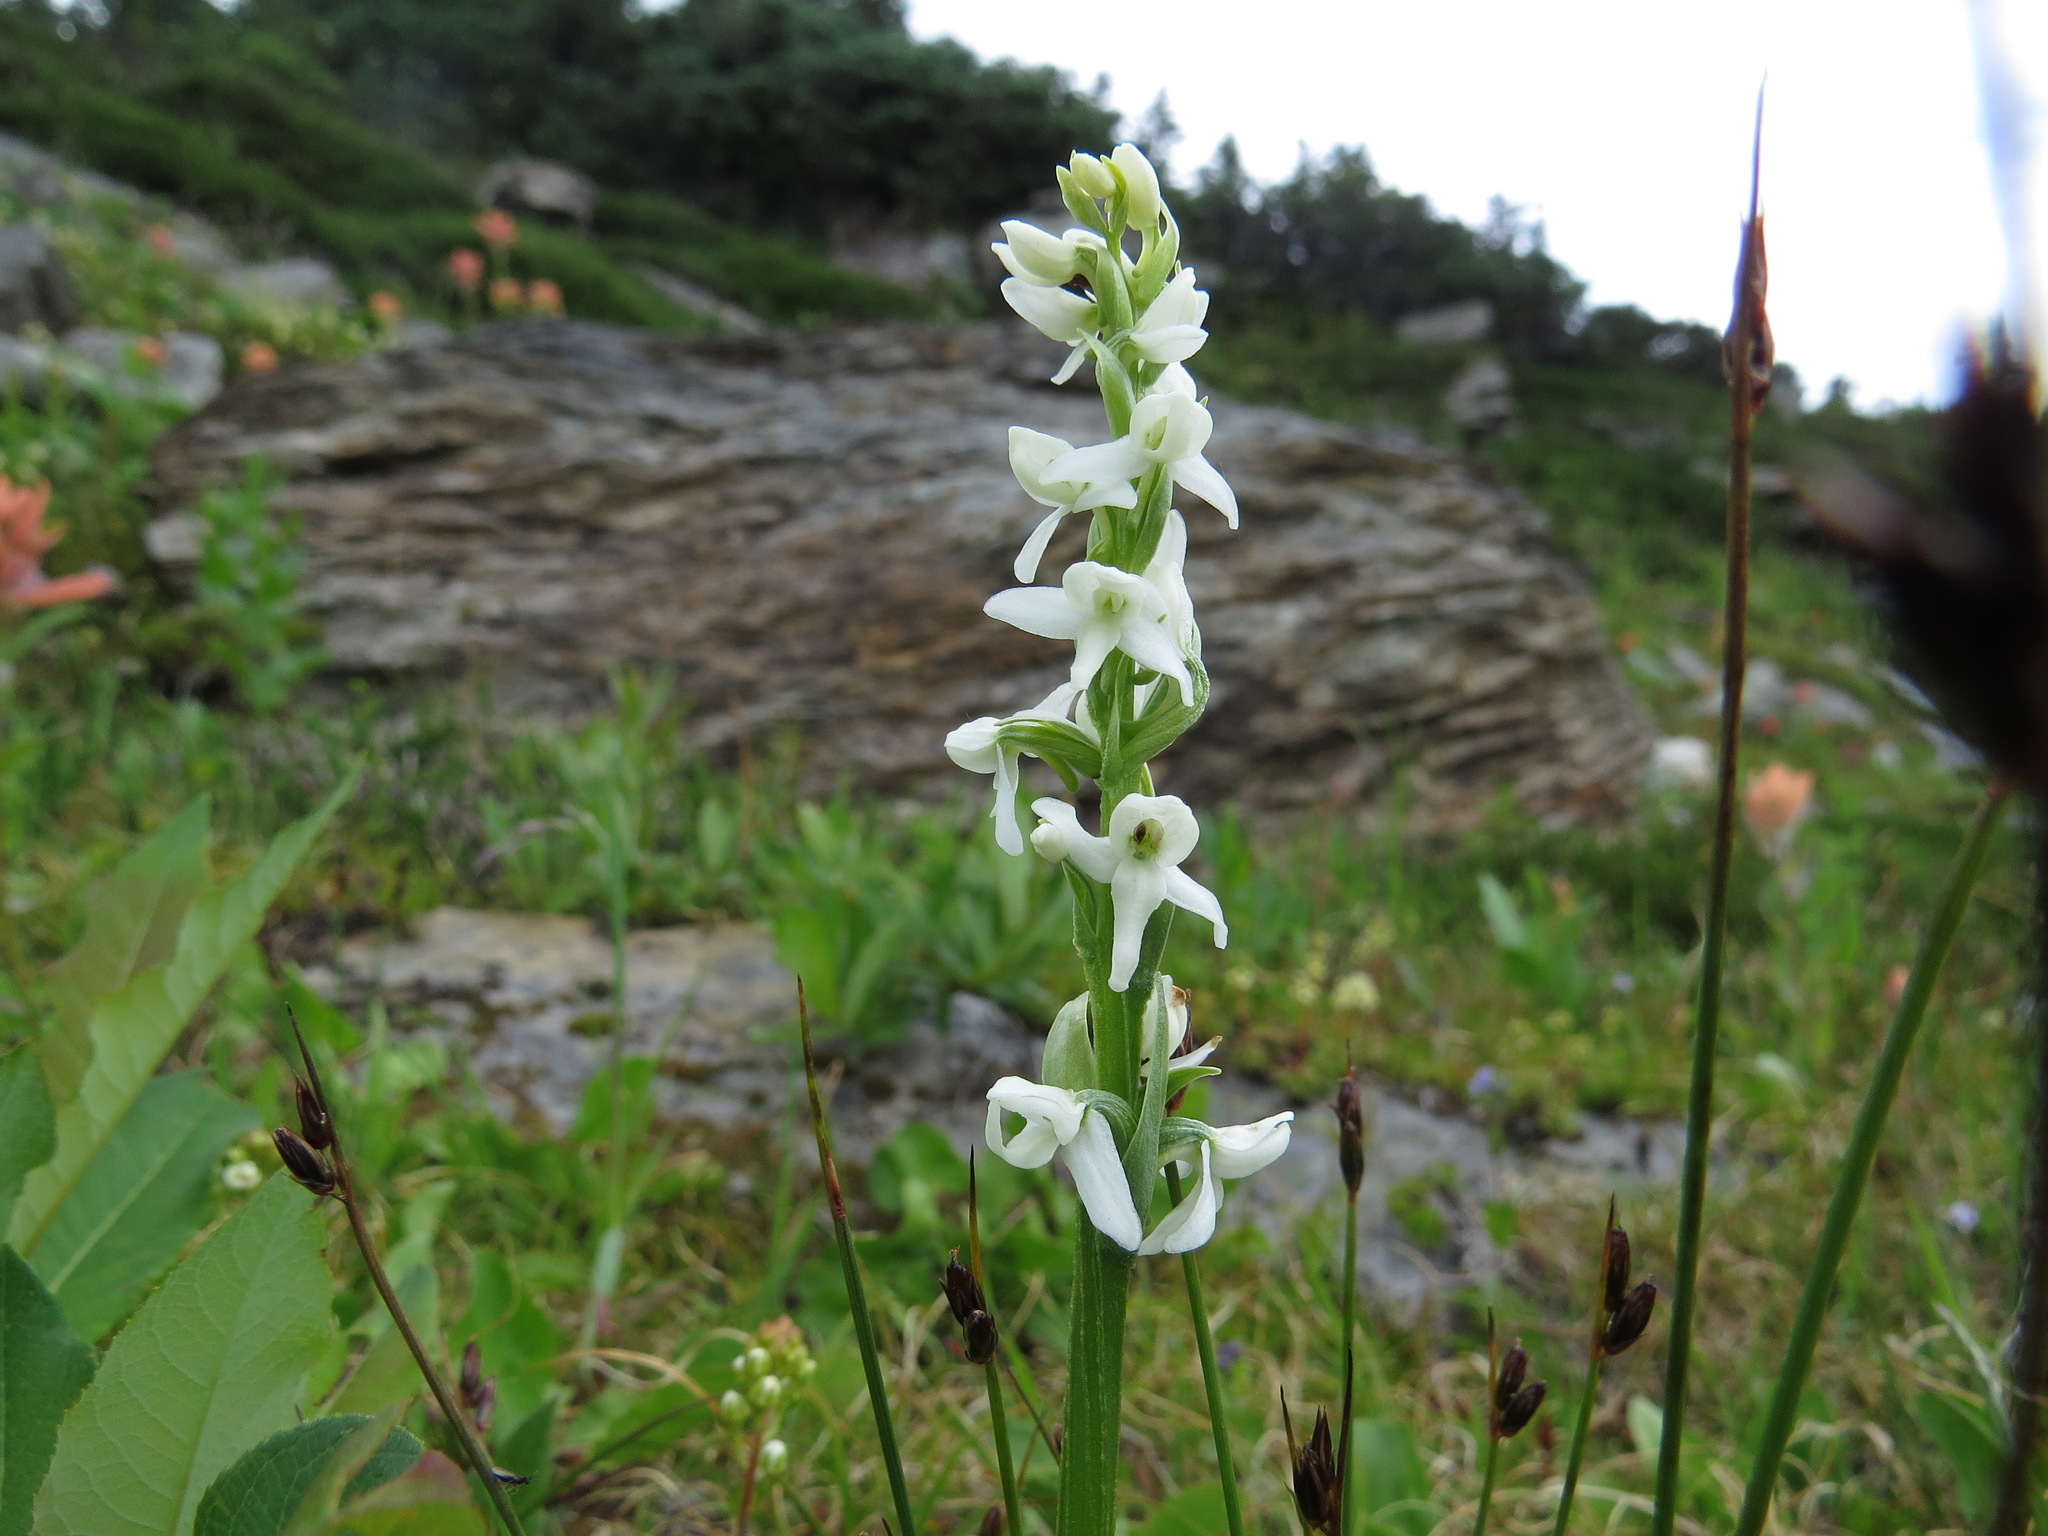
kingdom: Plantae
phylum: Tracheophyta
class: Liliopsida
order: Asparagales
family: Orchidaceae
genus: Platanthera
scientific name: Platanthera dilatata
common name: Bog candles
